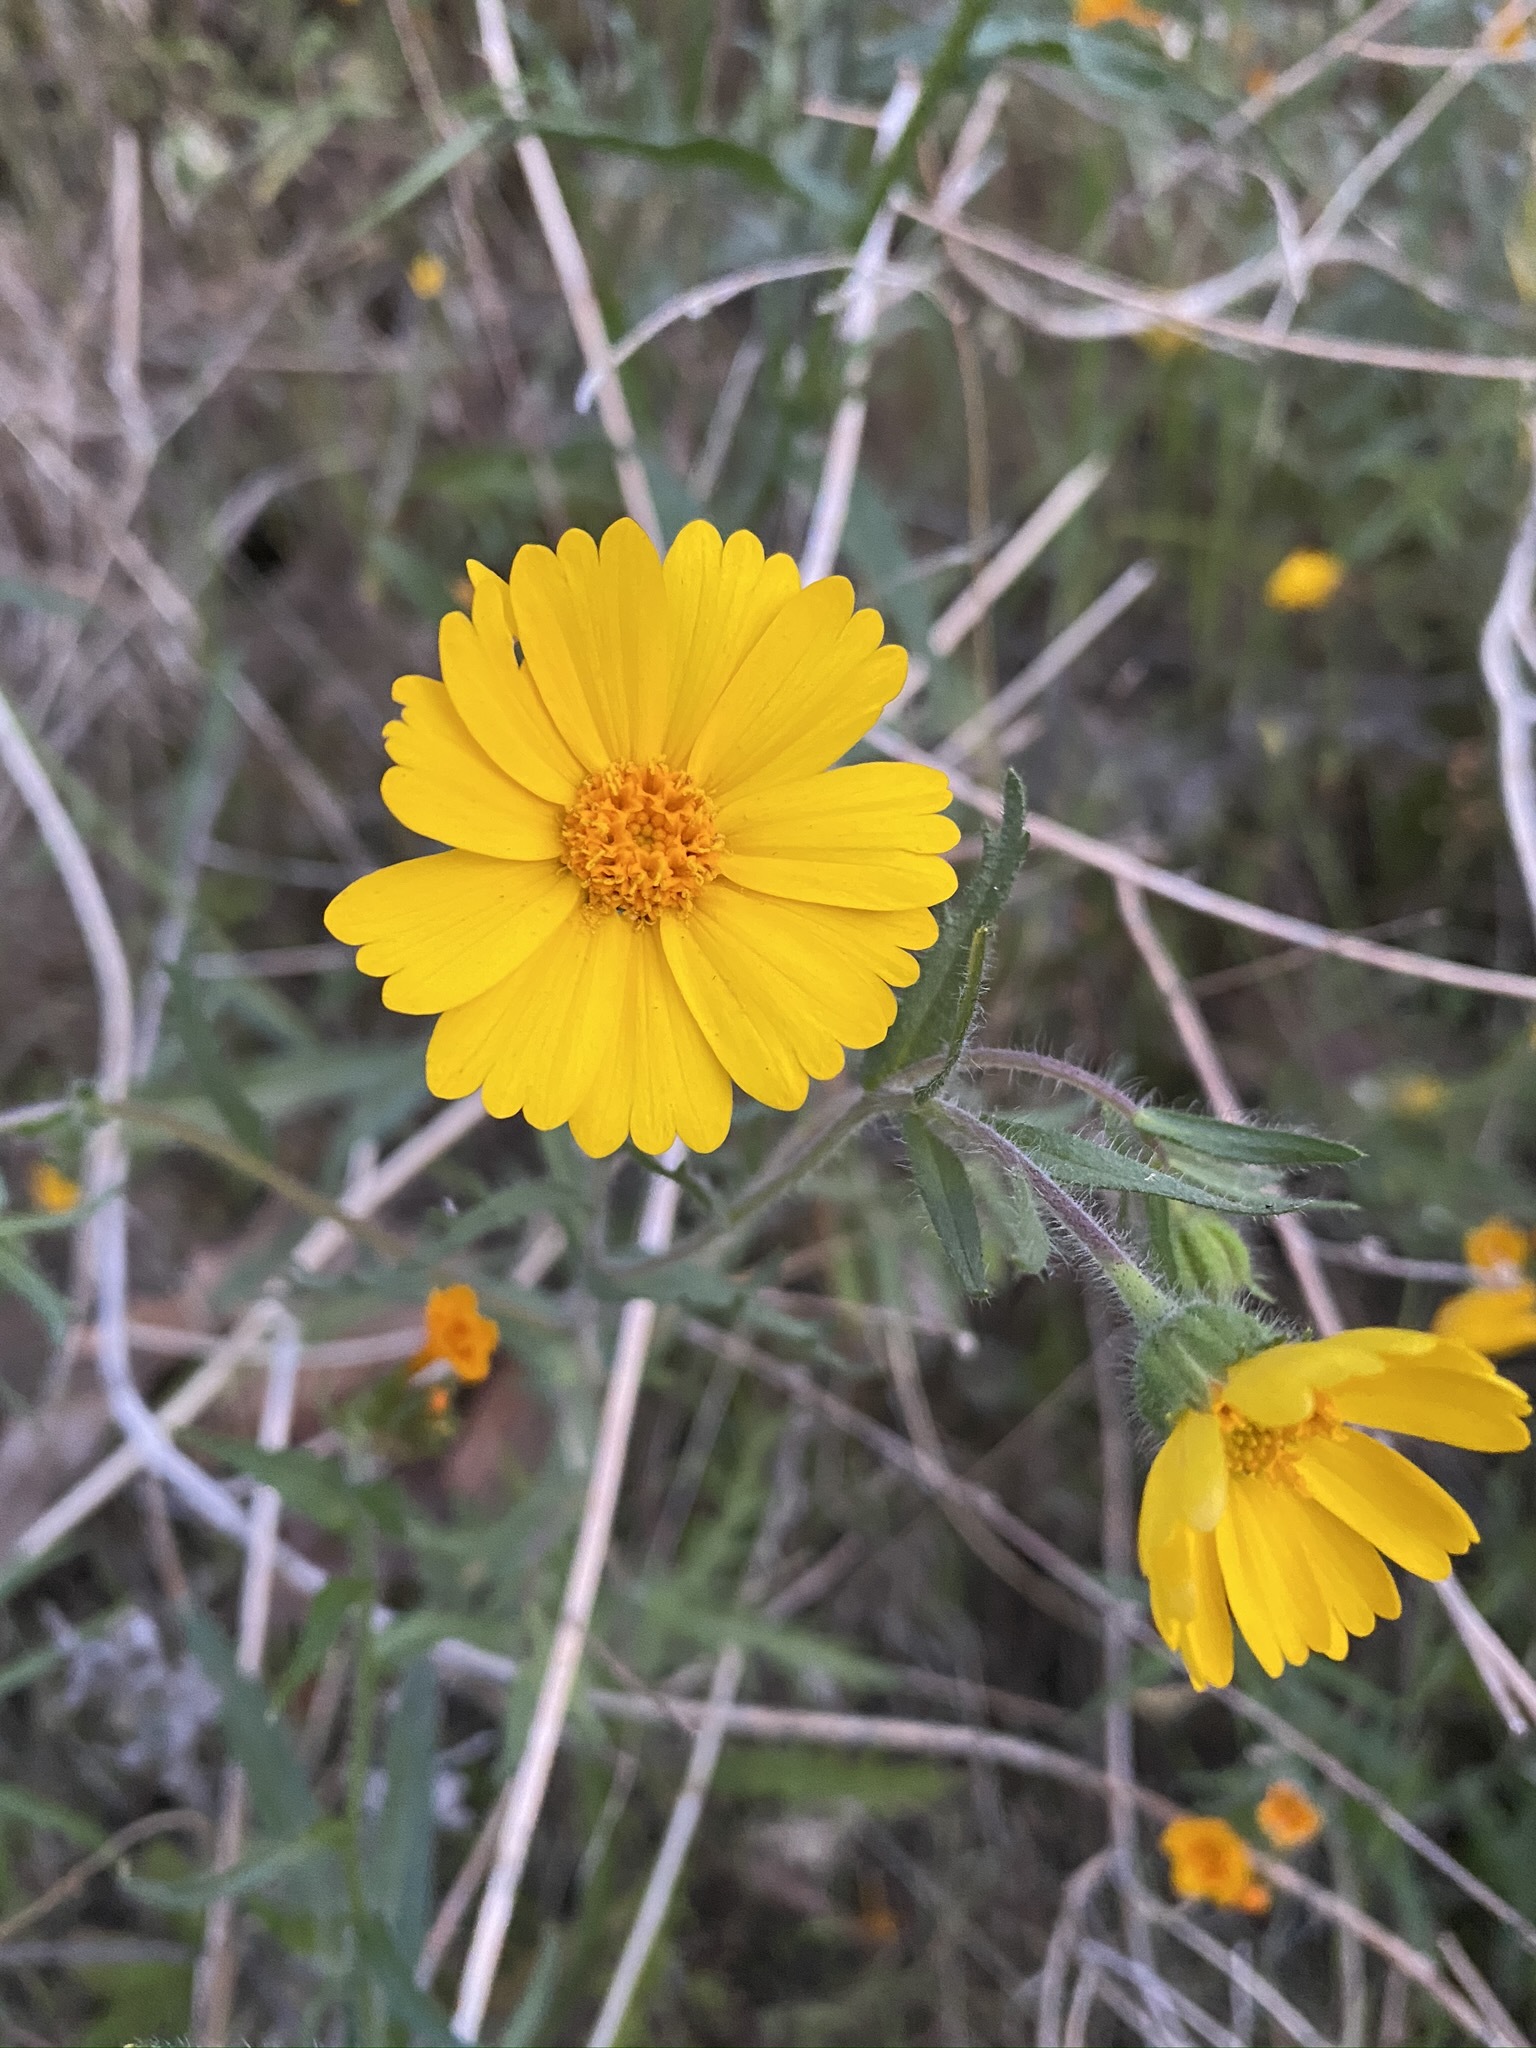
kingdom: Plantae
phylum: Tracheophyta
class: Magnoliopsida
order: Asterales
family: Asteraceae
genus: Layia
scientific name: Layia pentachaeta
